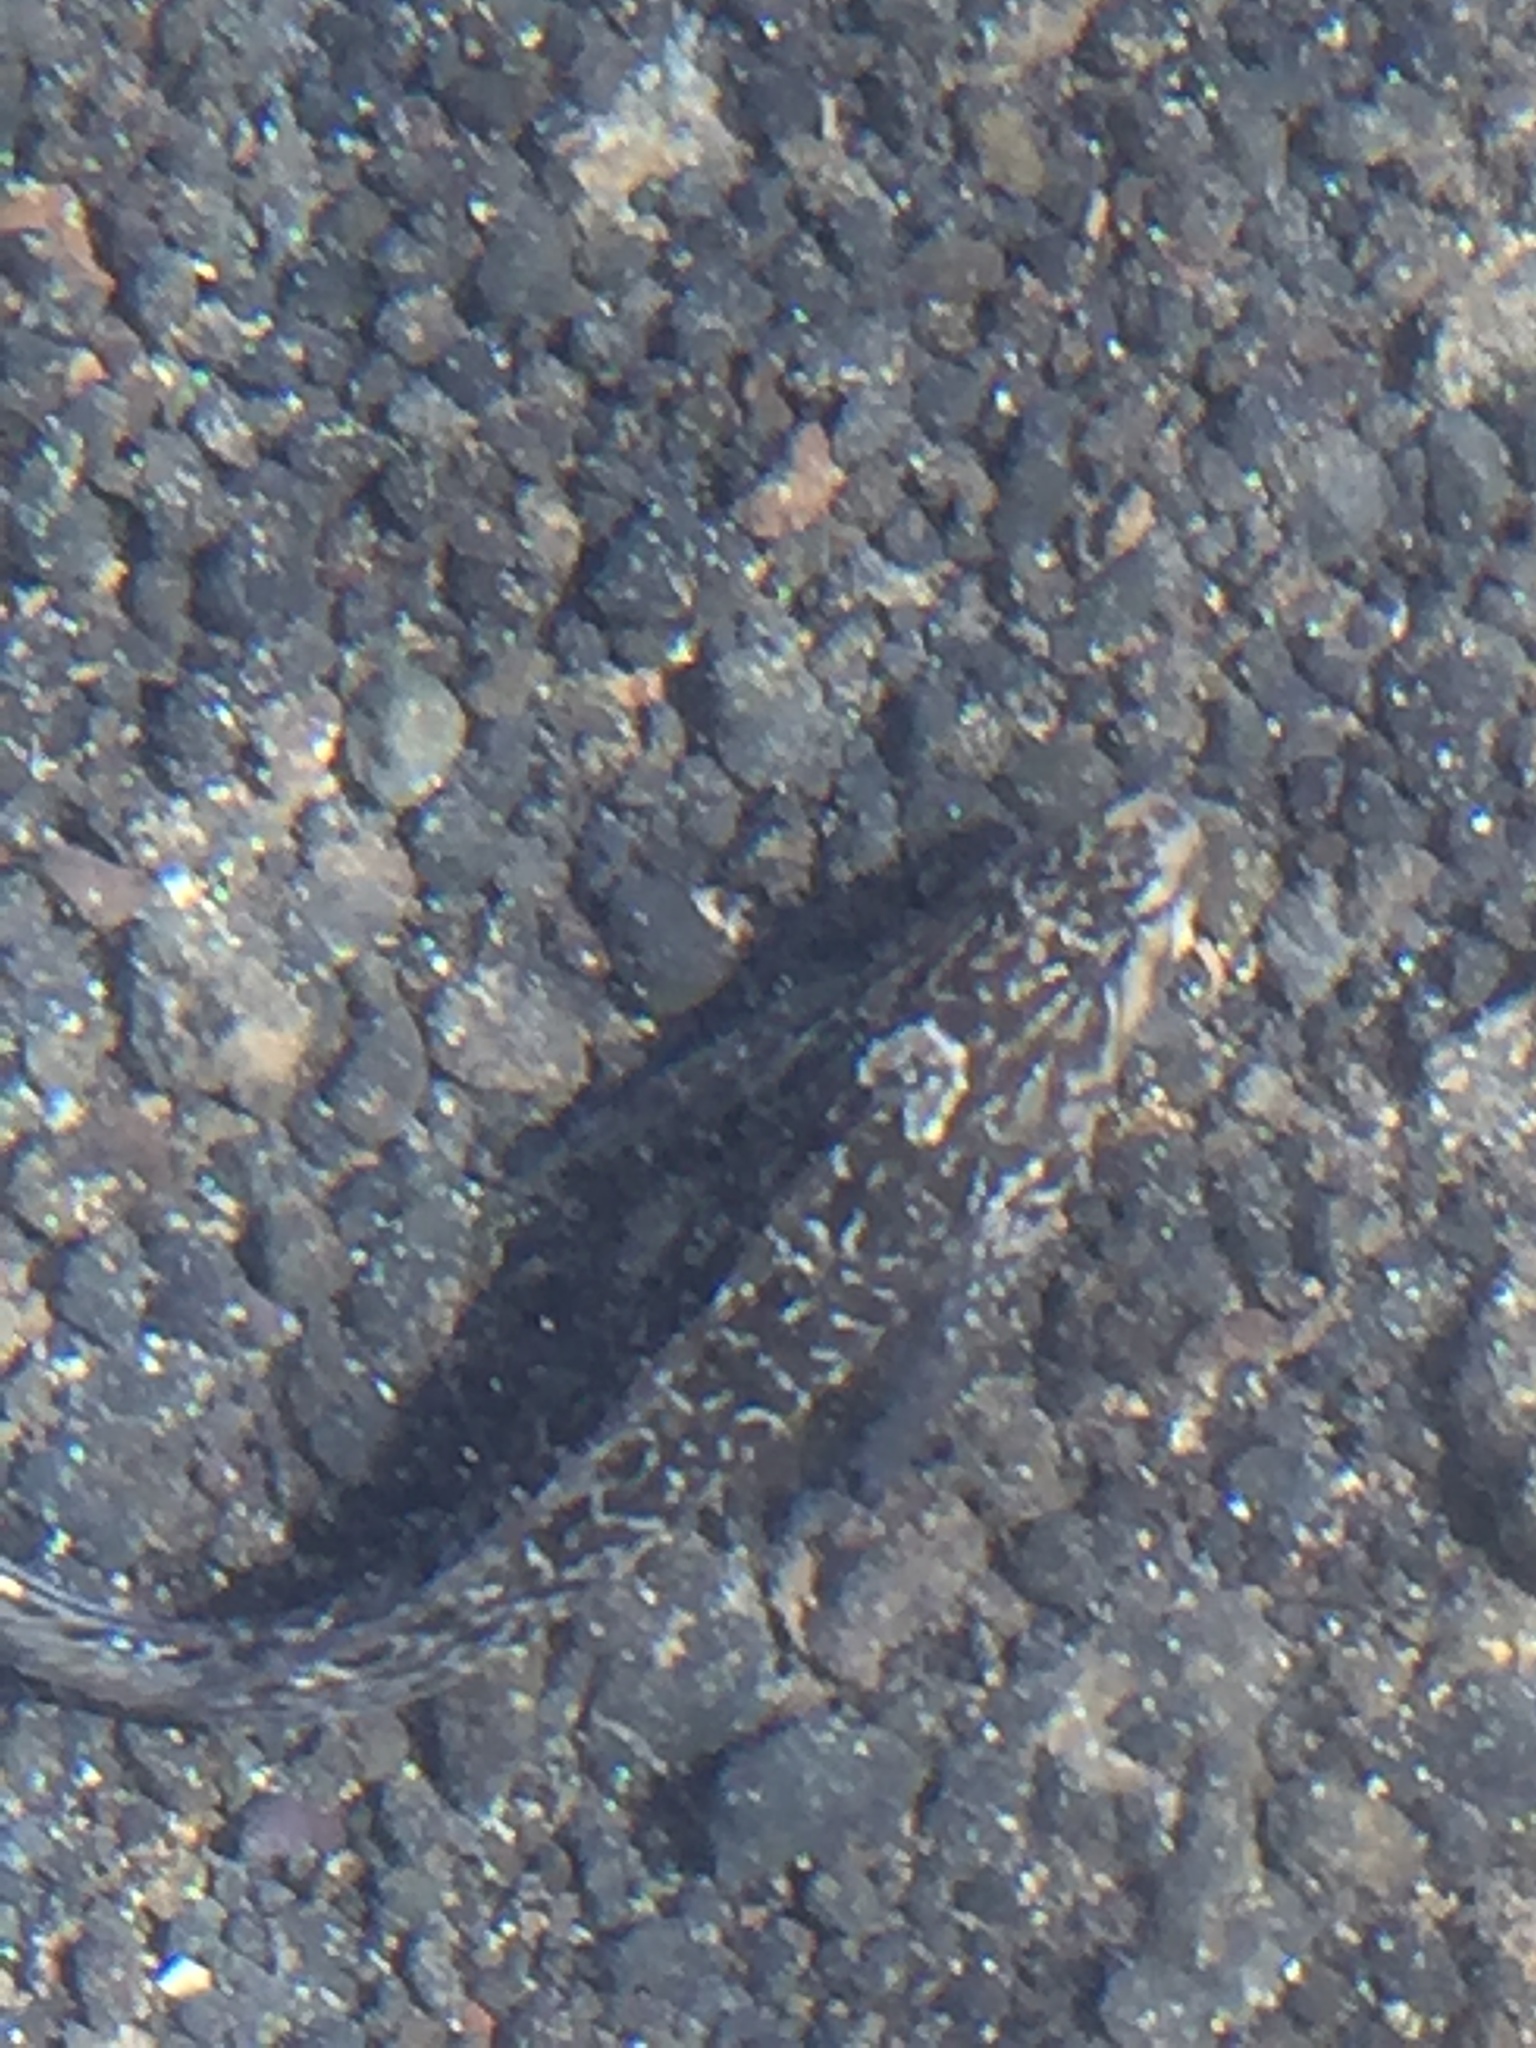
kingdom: Animalia
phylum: Chordata
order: Perciformes
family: Blenniidae
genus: Parablennius
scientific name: Parablennius parvicornis
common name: Rock-pool blenny
